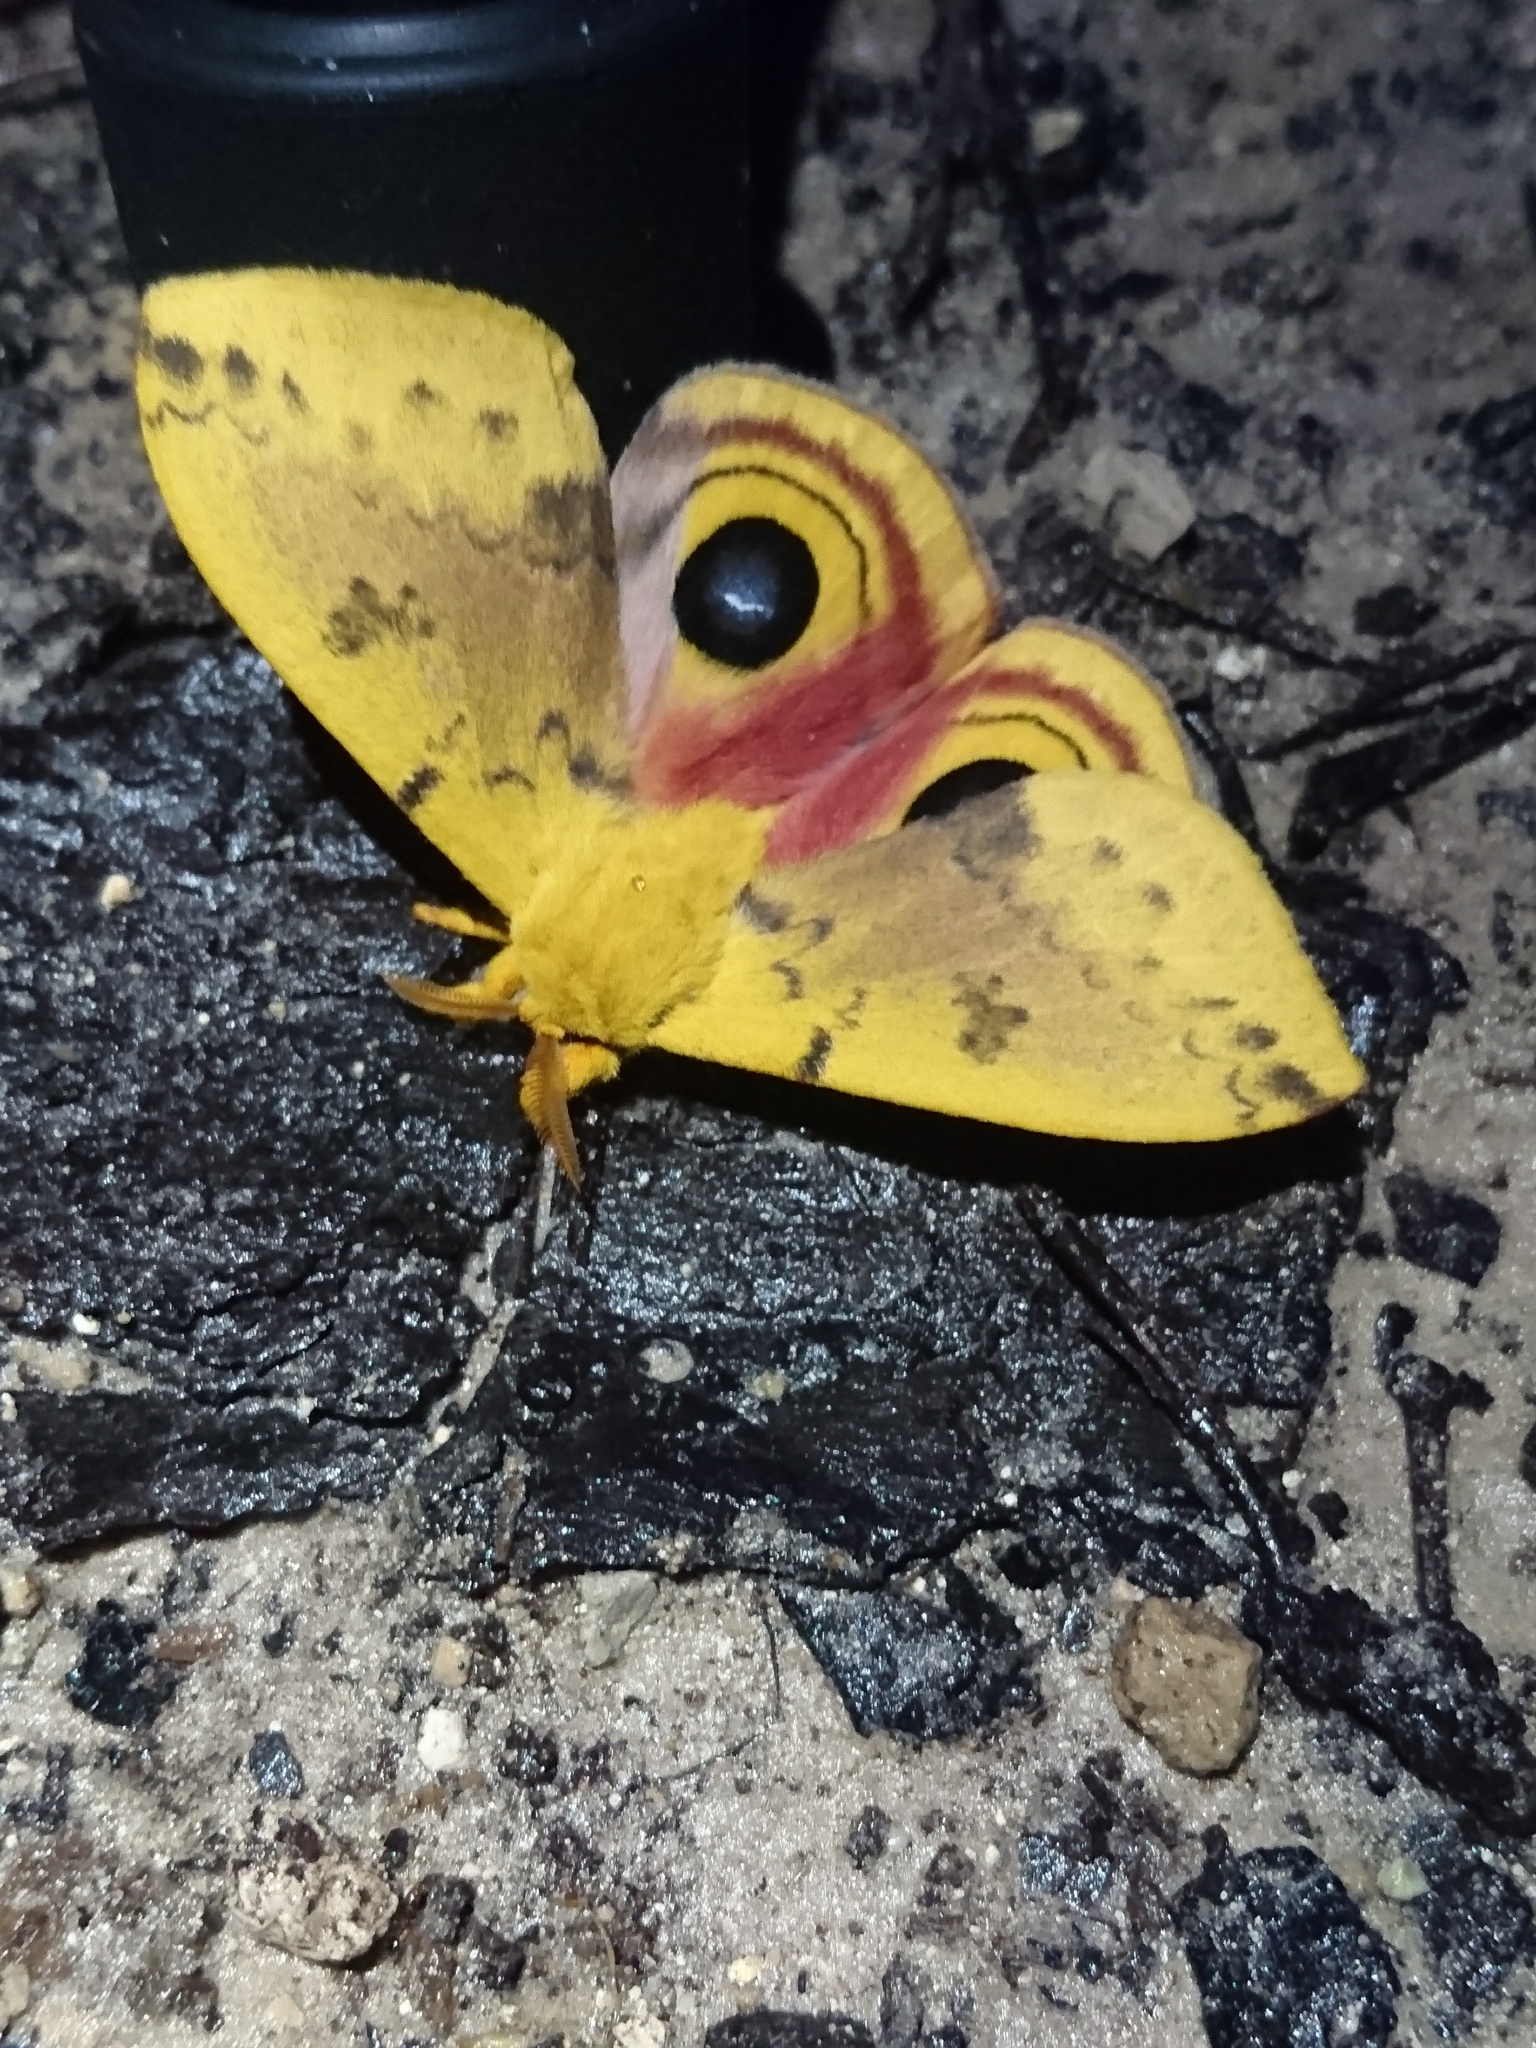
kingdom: Animalia
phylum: Arthropoda
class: Insecta
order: Lepidoptera
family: Saturniidae
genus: Automeris
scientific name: Automeris io
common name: Io moth
